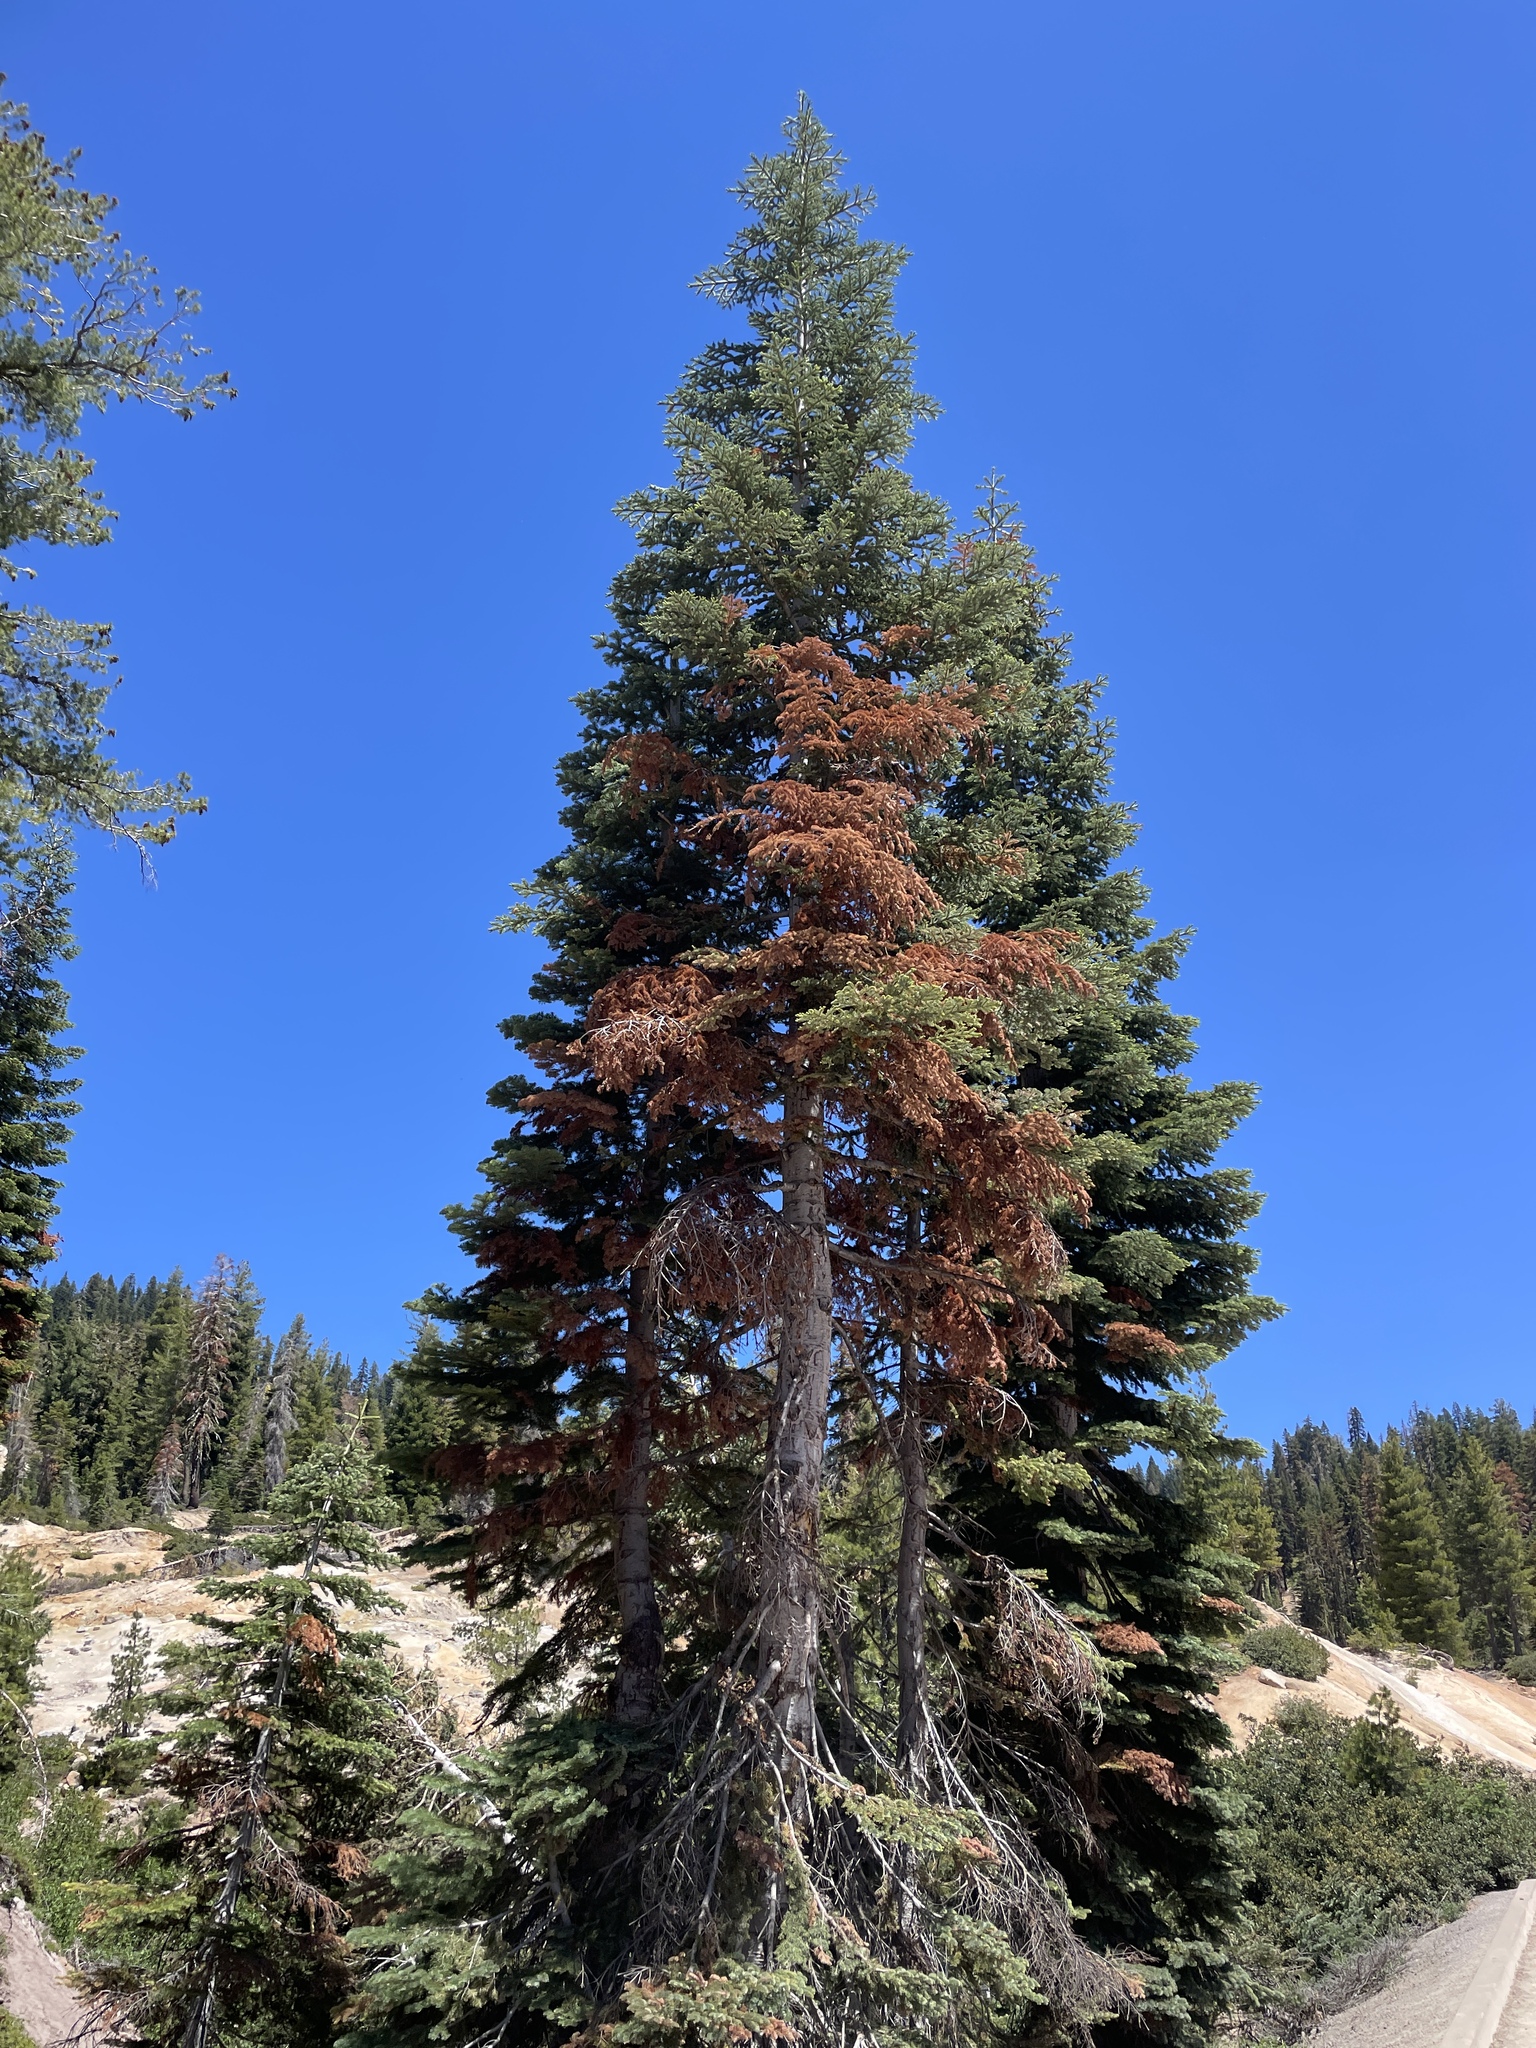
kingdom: Plantae
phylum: Tracheophyta
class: Pinopsida
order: Pinales
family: Pinaceae
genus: Abies
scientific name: Abies magnifica bis
